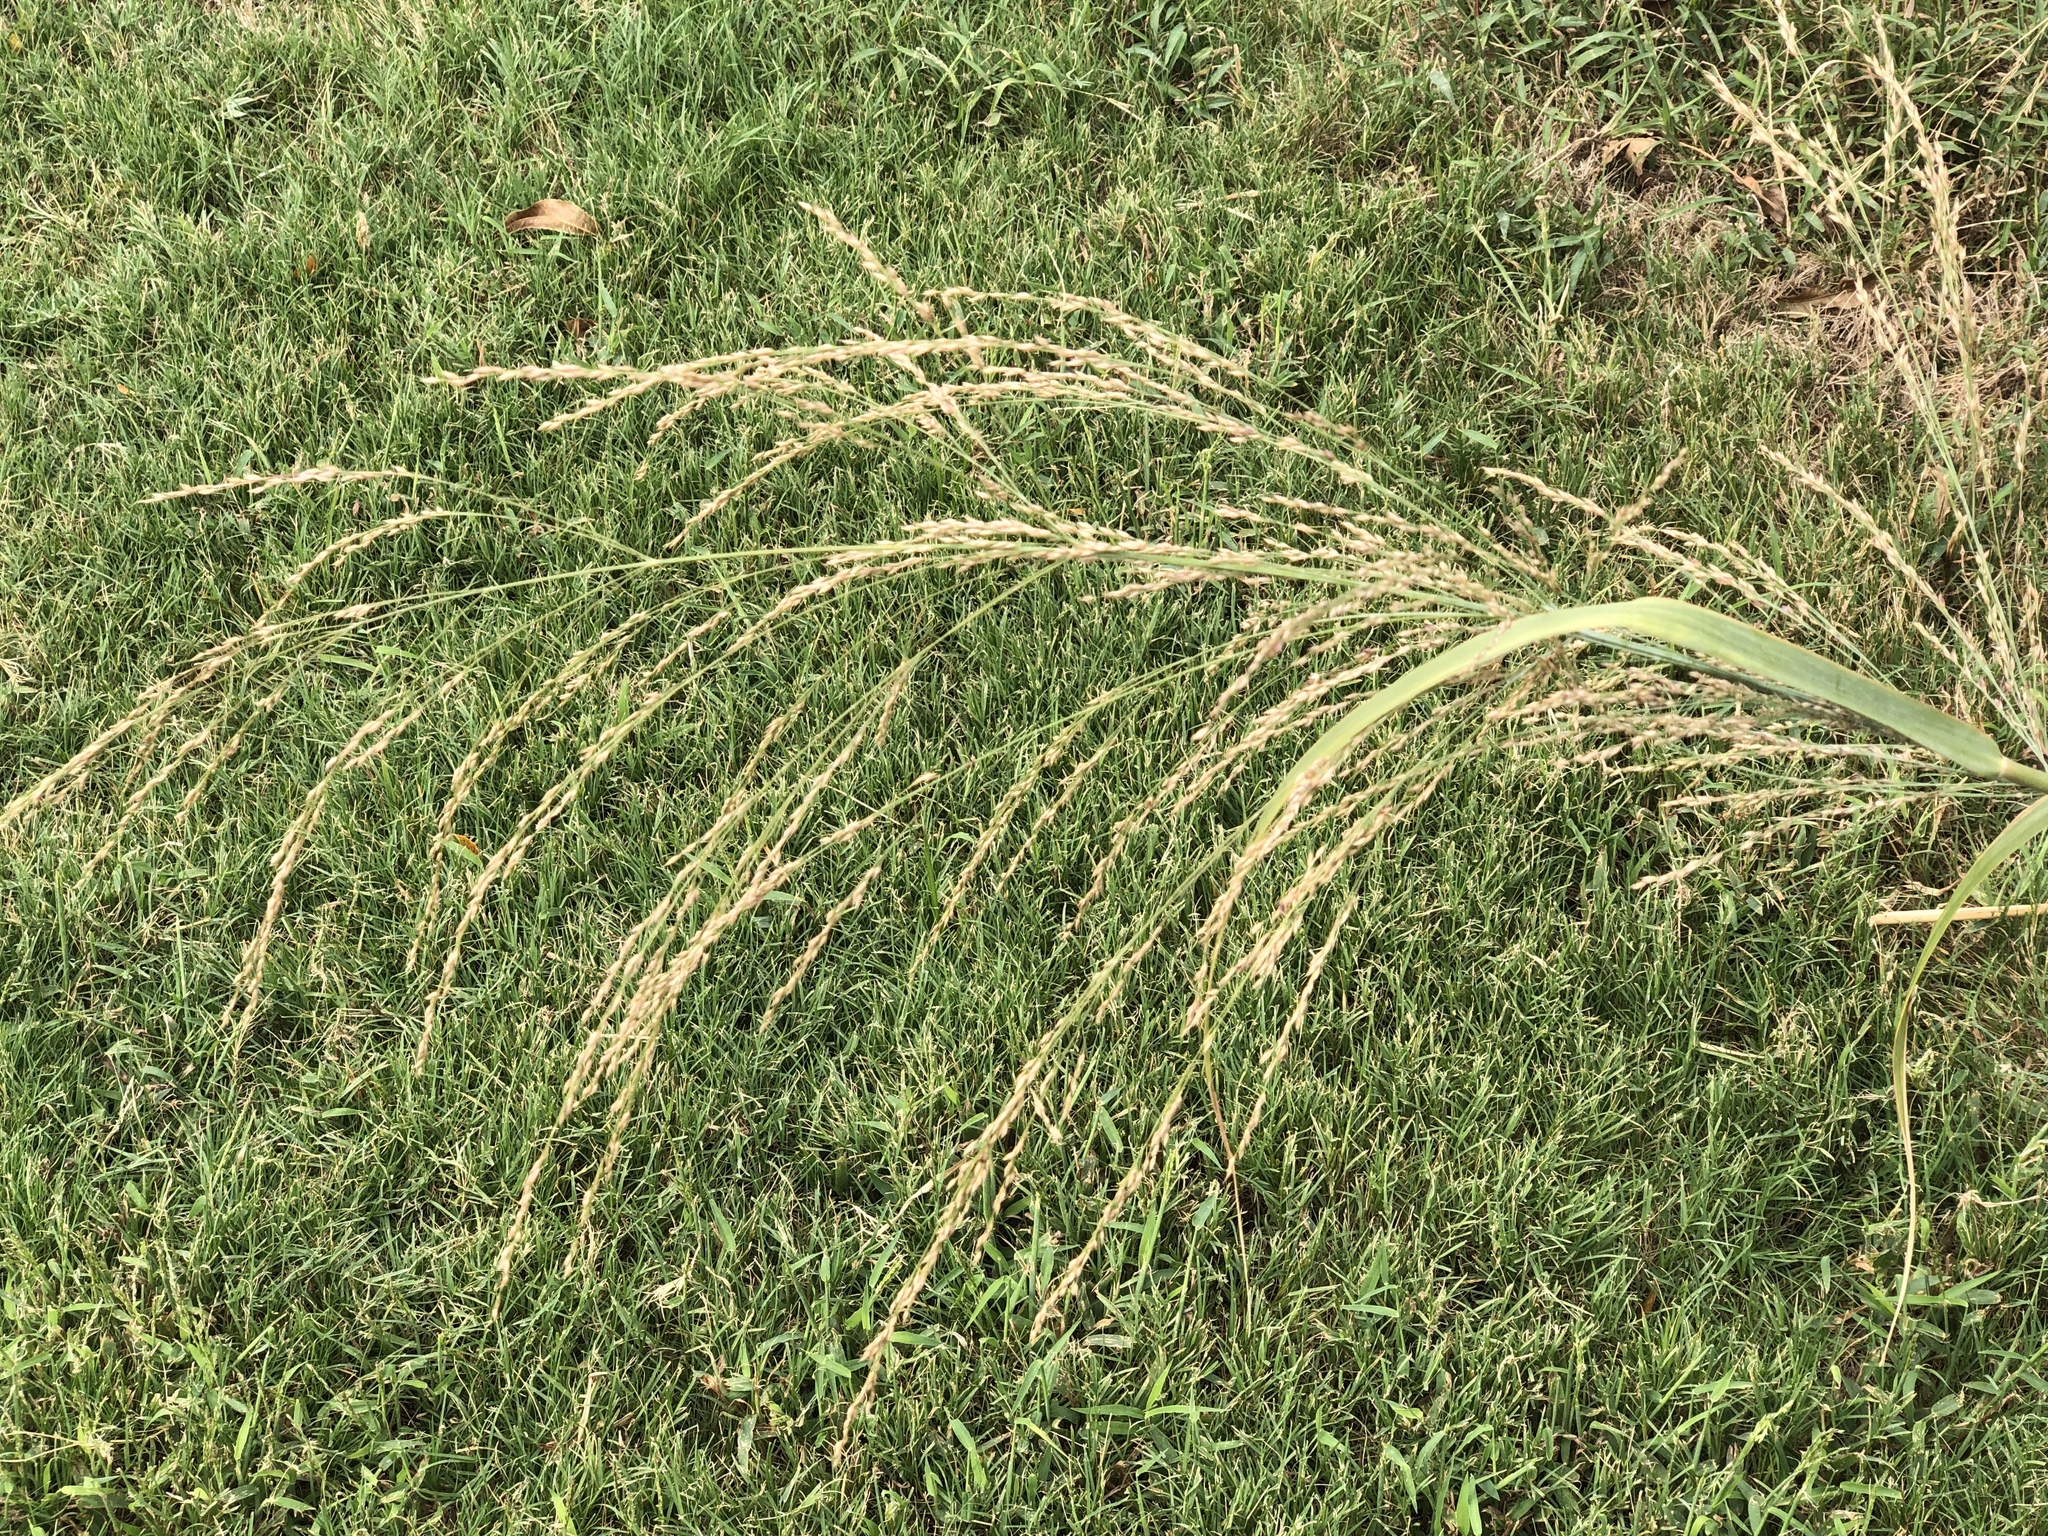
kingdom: Plantae
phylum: Tracheophyta
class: Liliopsida
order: Poales
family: Poaceae
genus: Panicum
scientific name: Panicum virgatum
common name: Switchgrass
